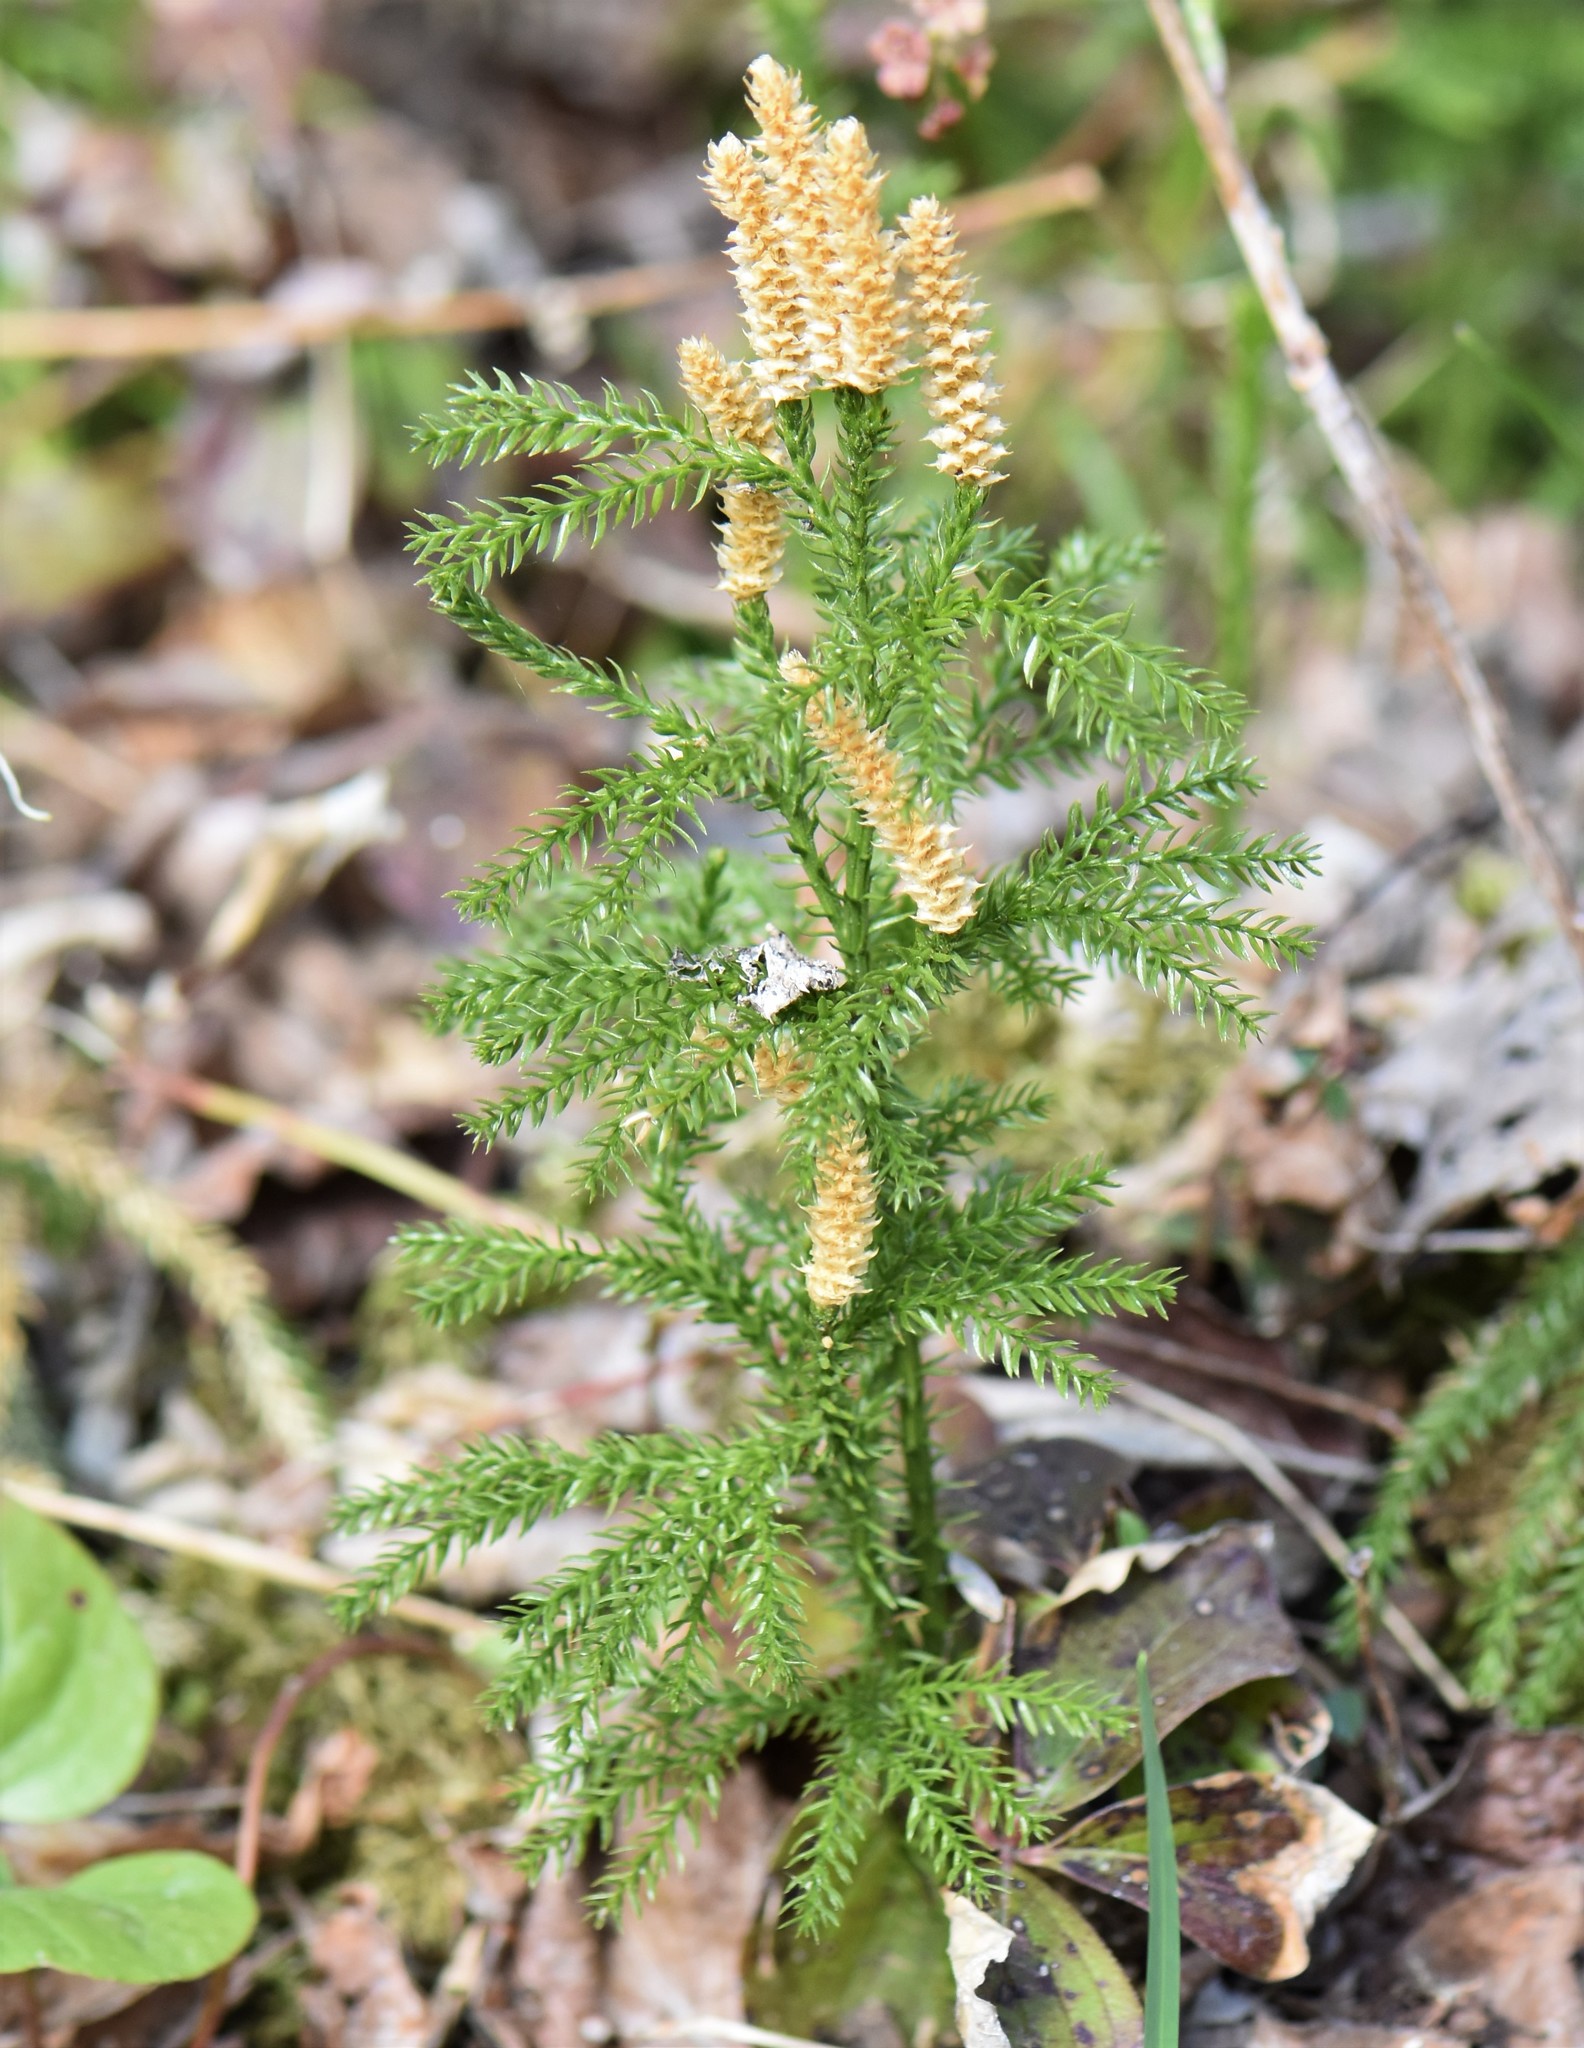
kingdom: Plantae
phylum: Tracheophyta
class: Lycopodiopsida
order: Lycopodiales
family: Lycopodiaceae
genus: Dendrolycopodium
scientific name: Dendrolycopodium dendroideum
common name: Northern tree-clubmoss
